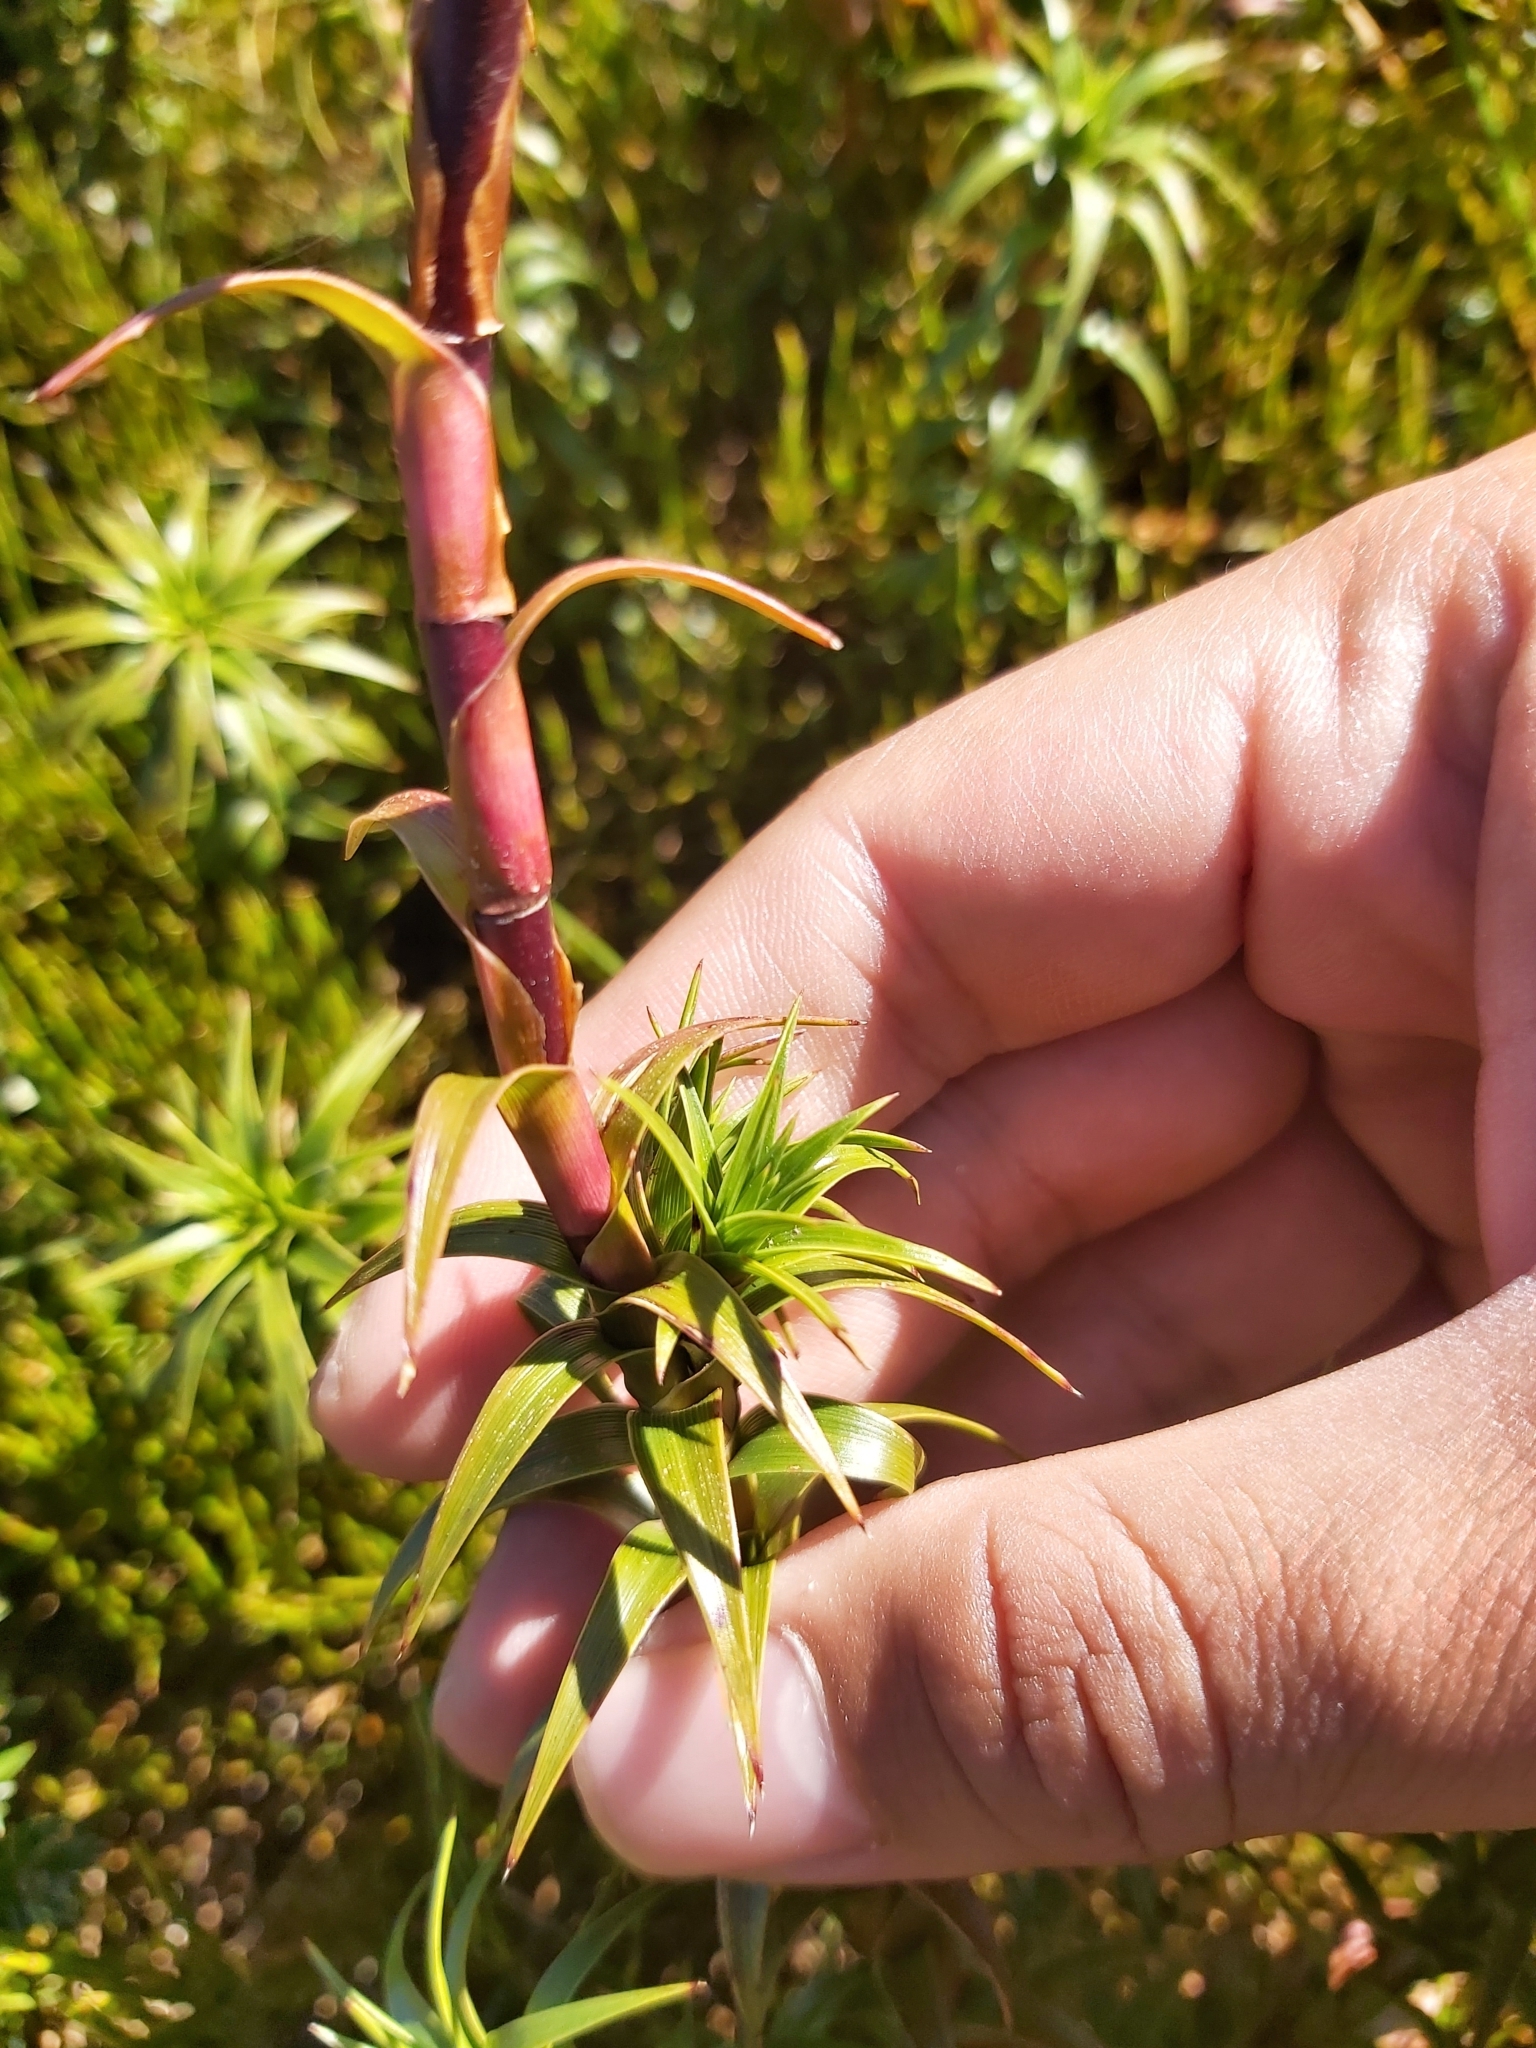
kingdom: Plantae
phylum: Tracheophyta
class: Magnoliopsida
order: Ericales
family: Ericaceae
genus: Dracophyllum
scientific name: Dracophyllum continentis
